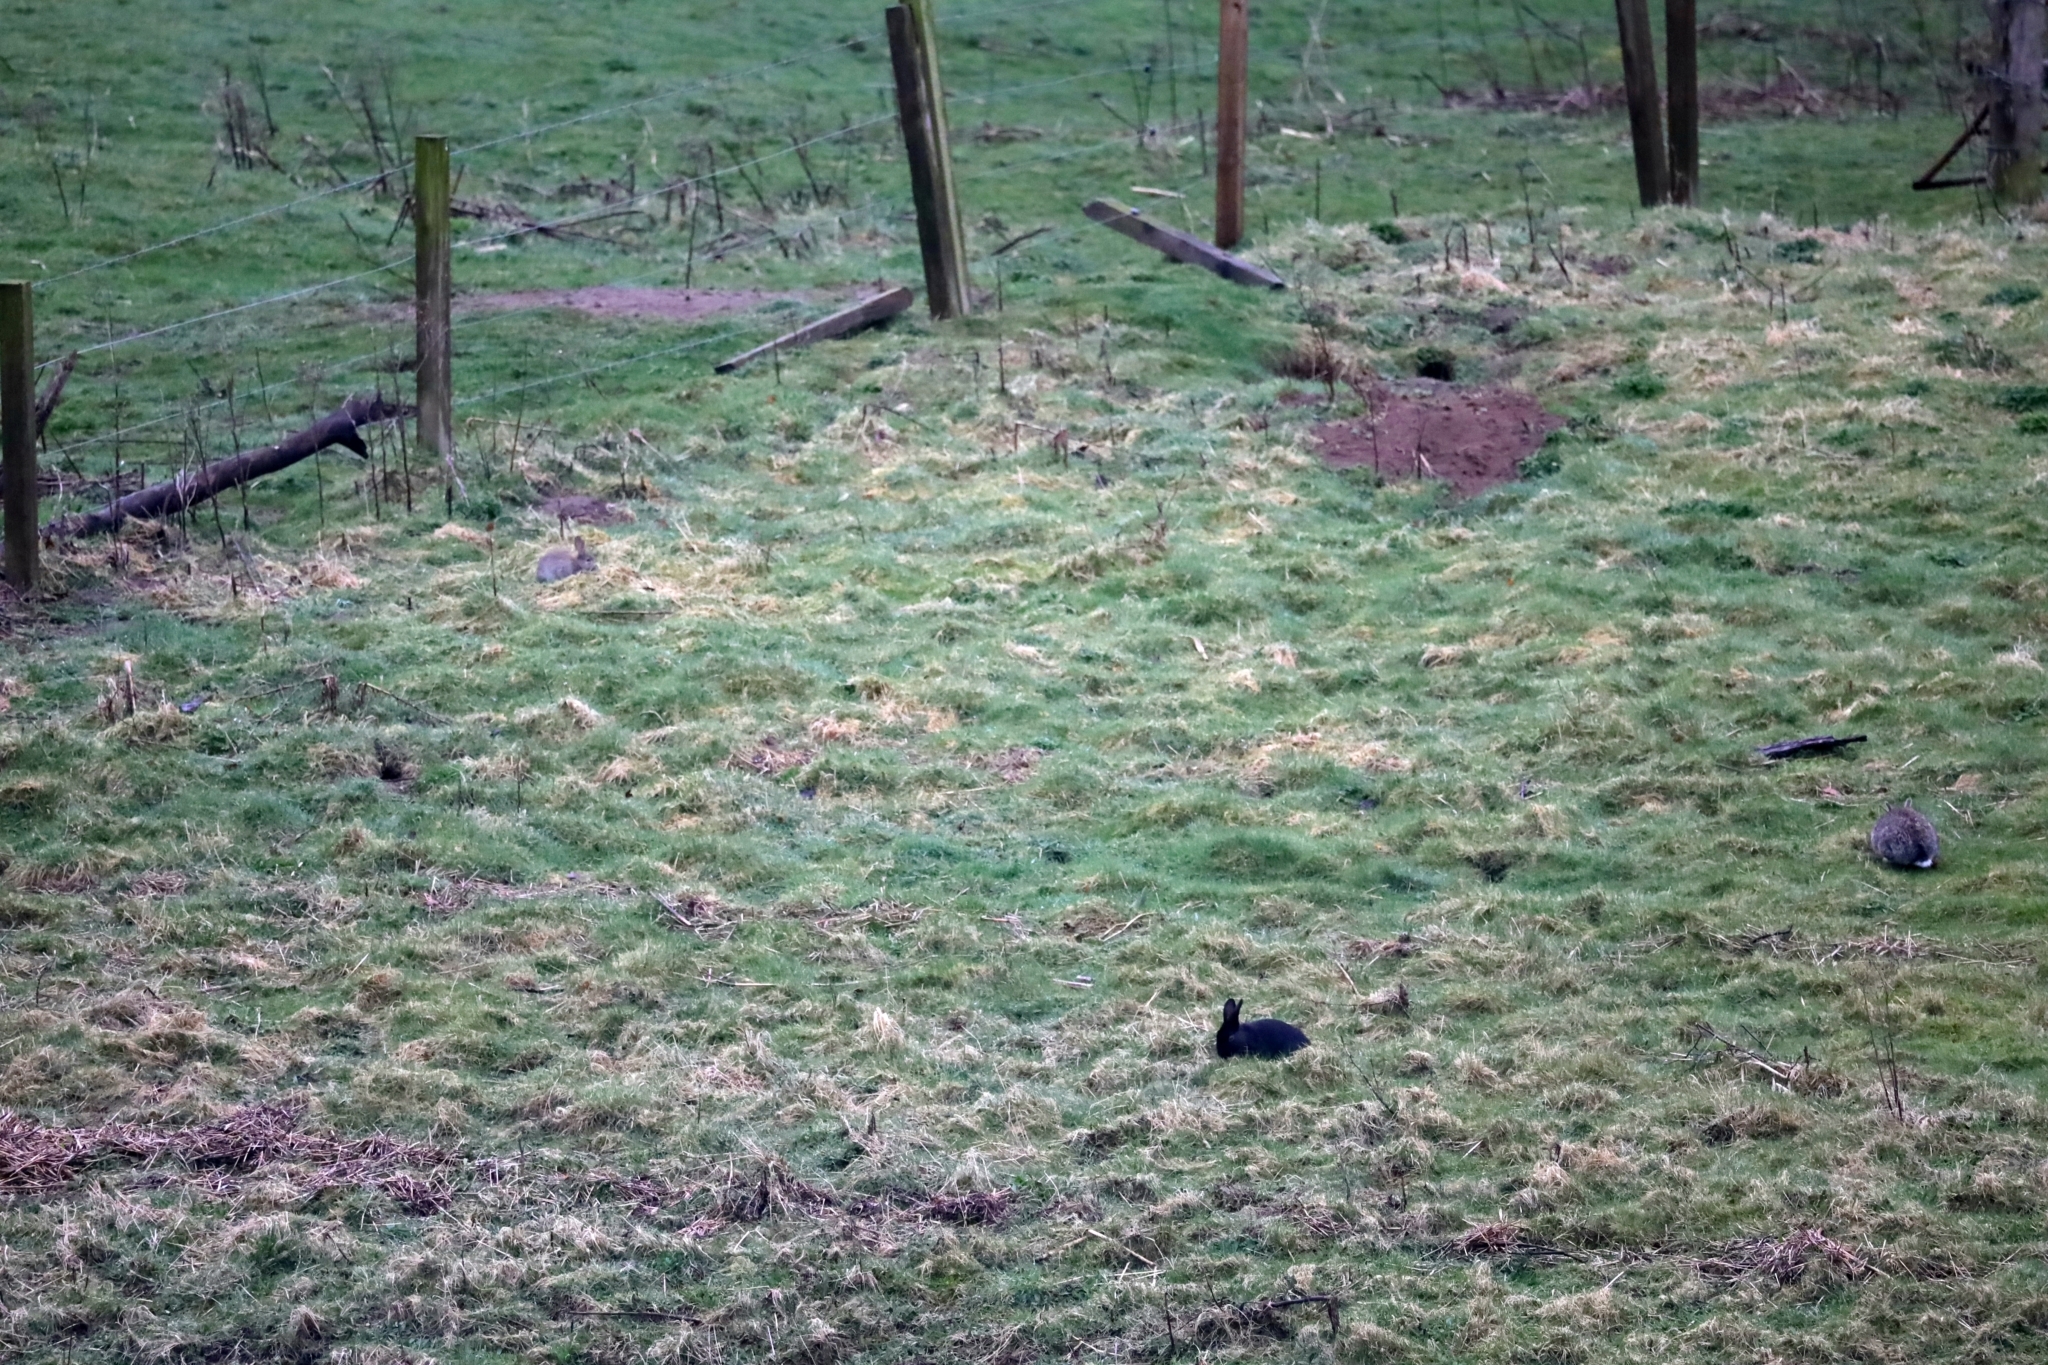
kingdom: Animalia
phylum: Chordata
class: Mammalia
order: Lagomorpha
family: Leporidae
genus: Oryctolagus
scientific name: Oryctolagus cuniculus
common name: European rabbit
